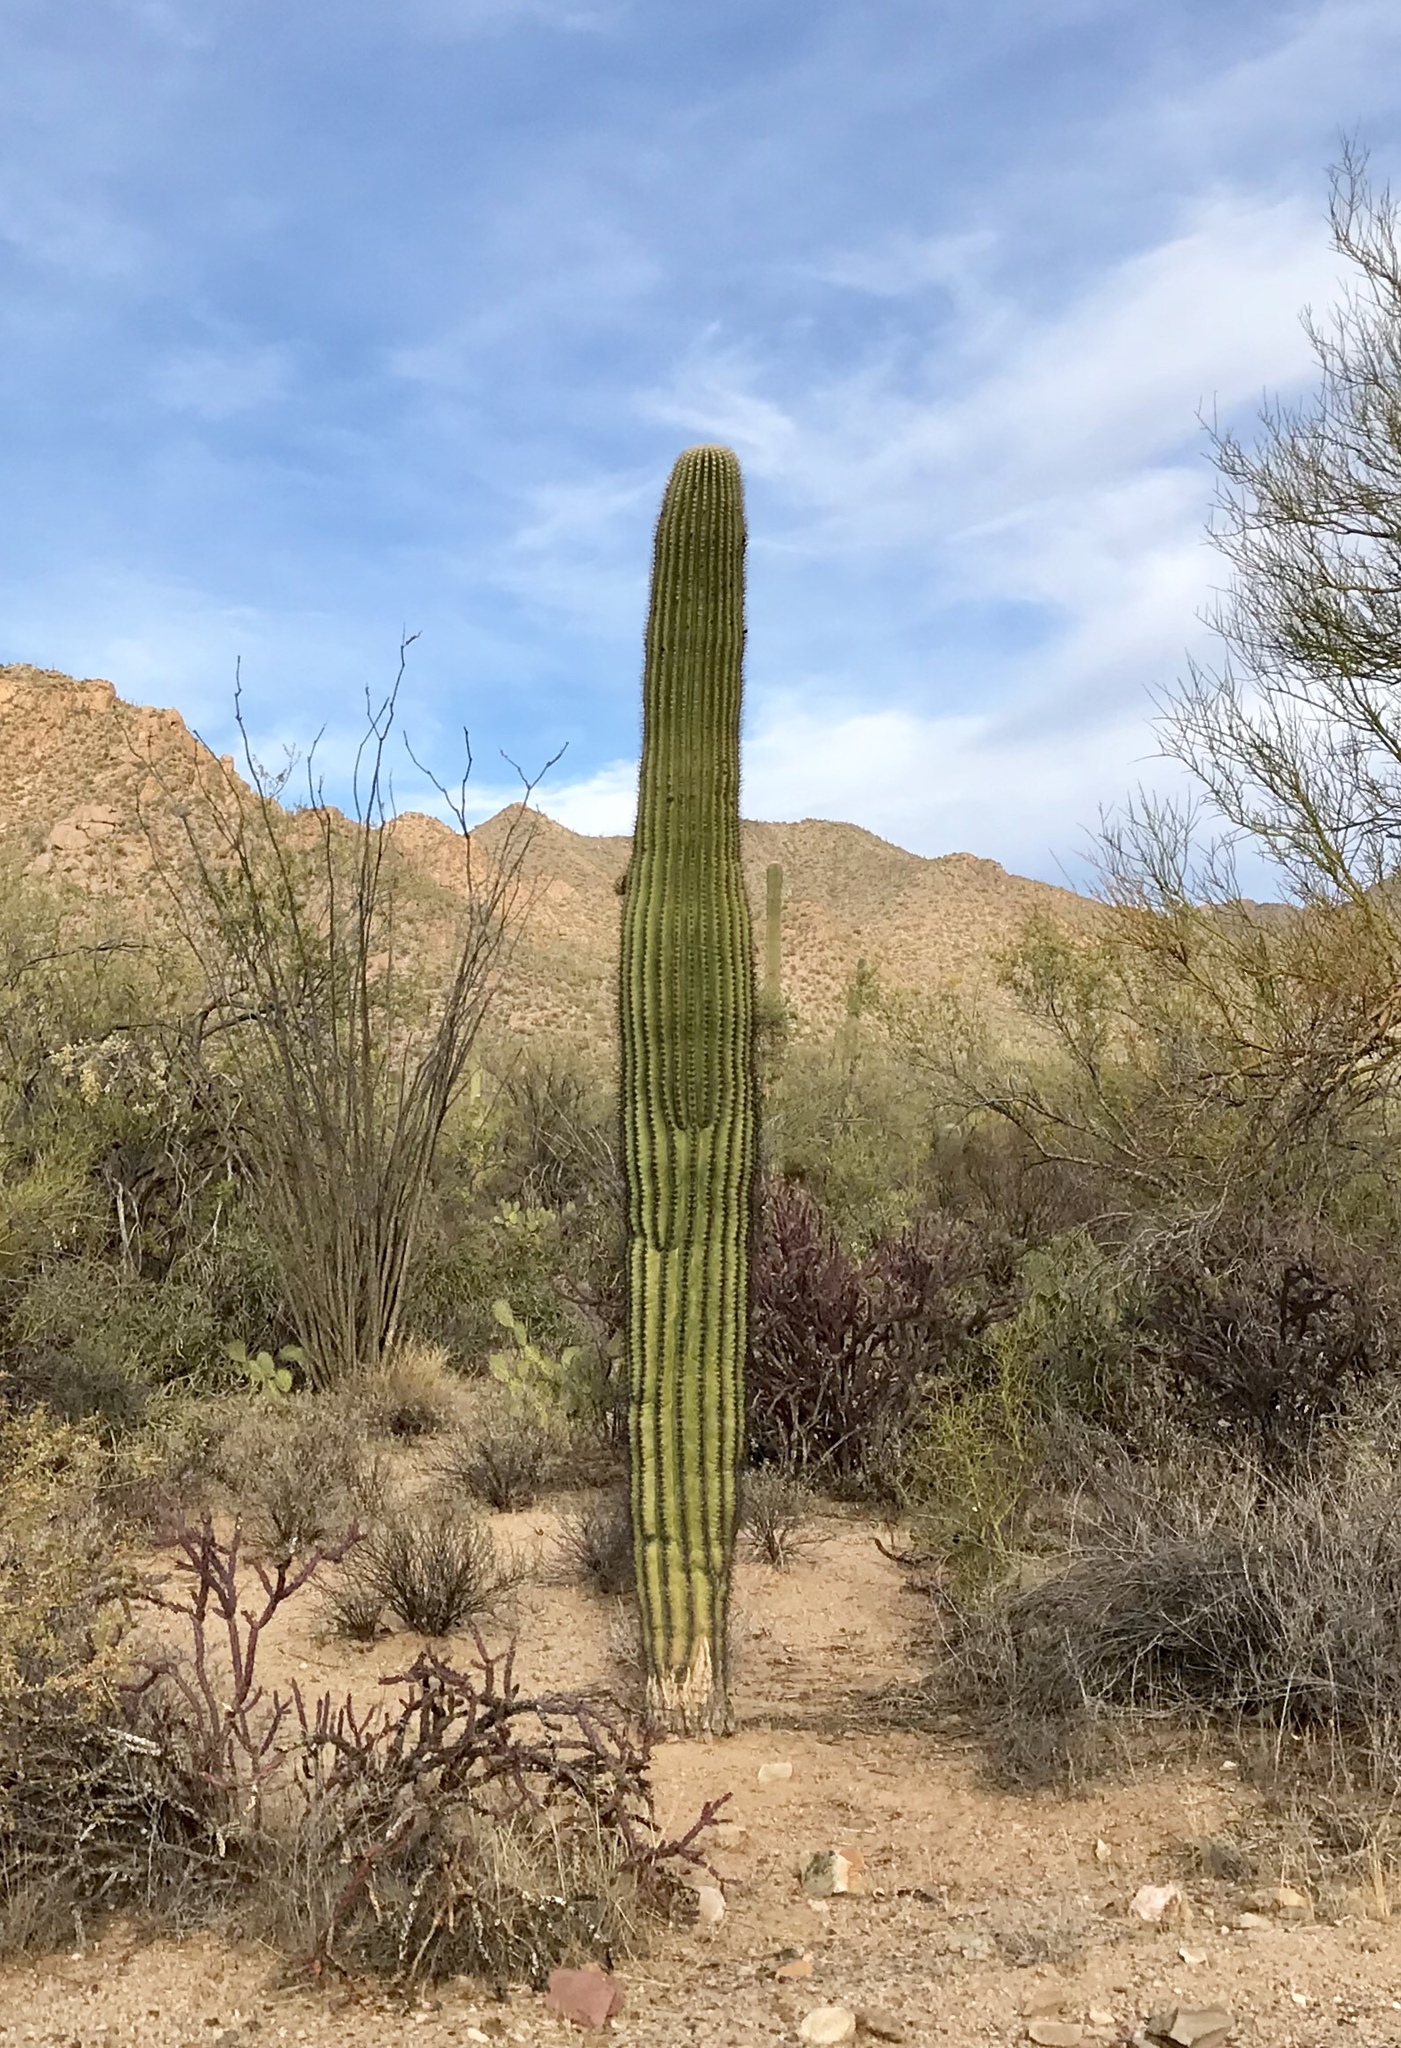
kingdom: Plantae
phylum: Tracheophyta
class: Magnoliopsida
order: Caryophyllales
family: Cactaceae
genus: Carnegiea
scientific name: Carnegiea gigantea
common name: Saguaro
